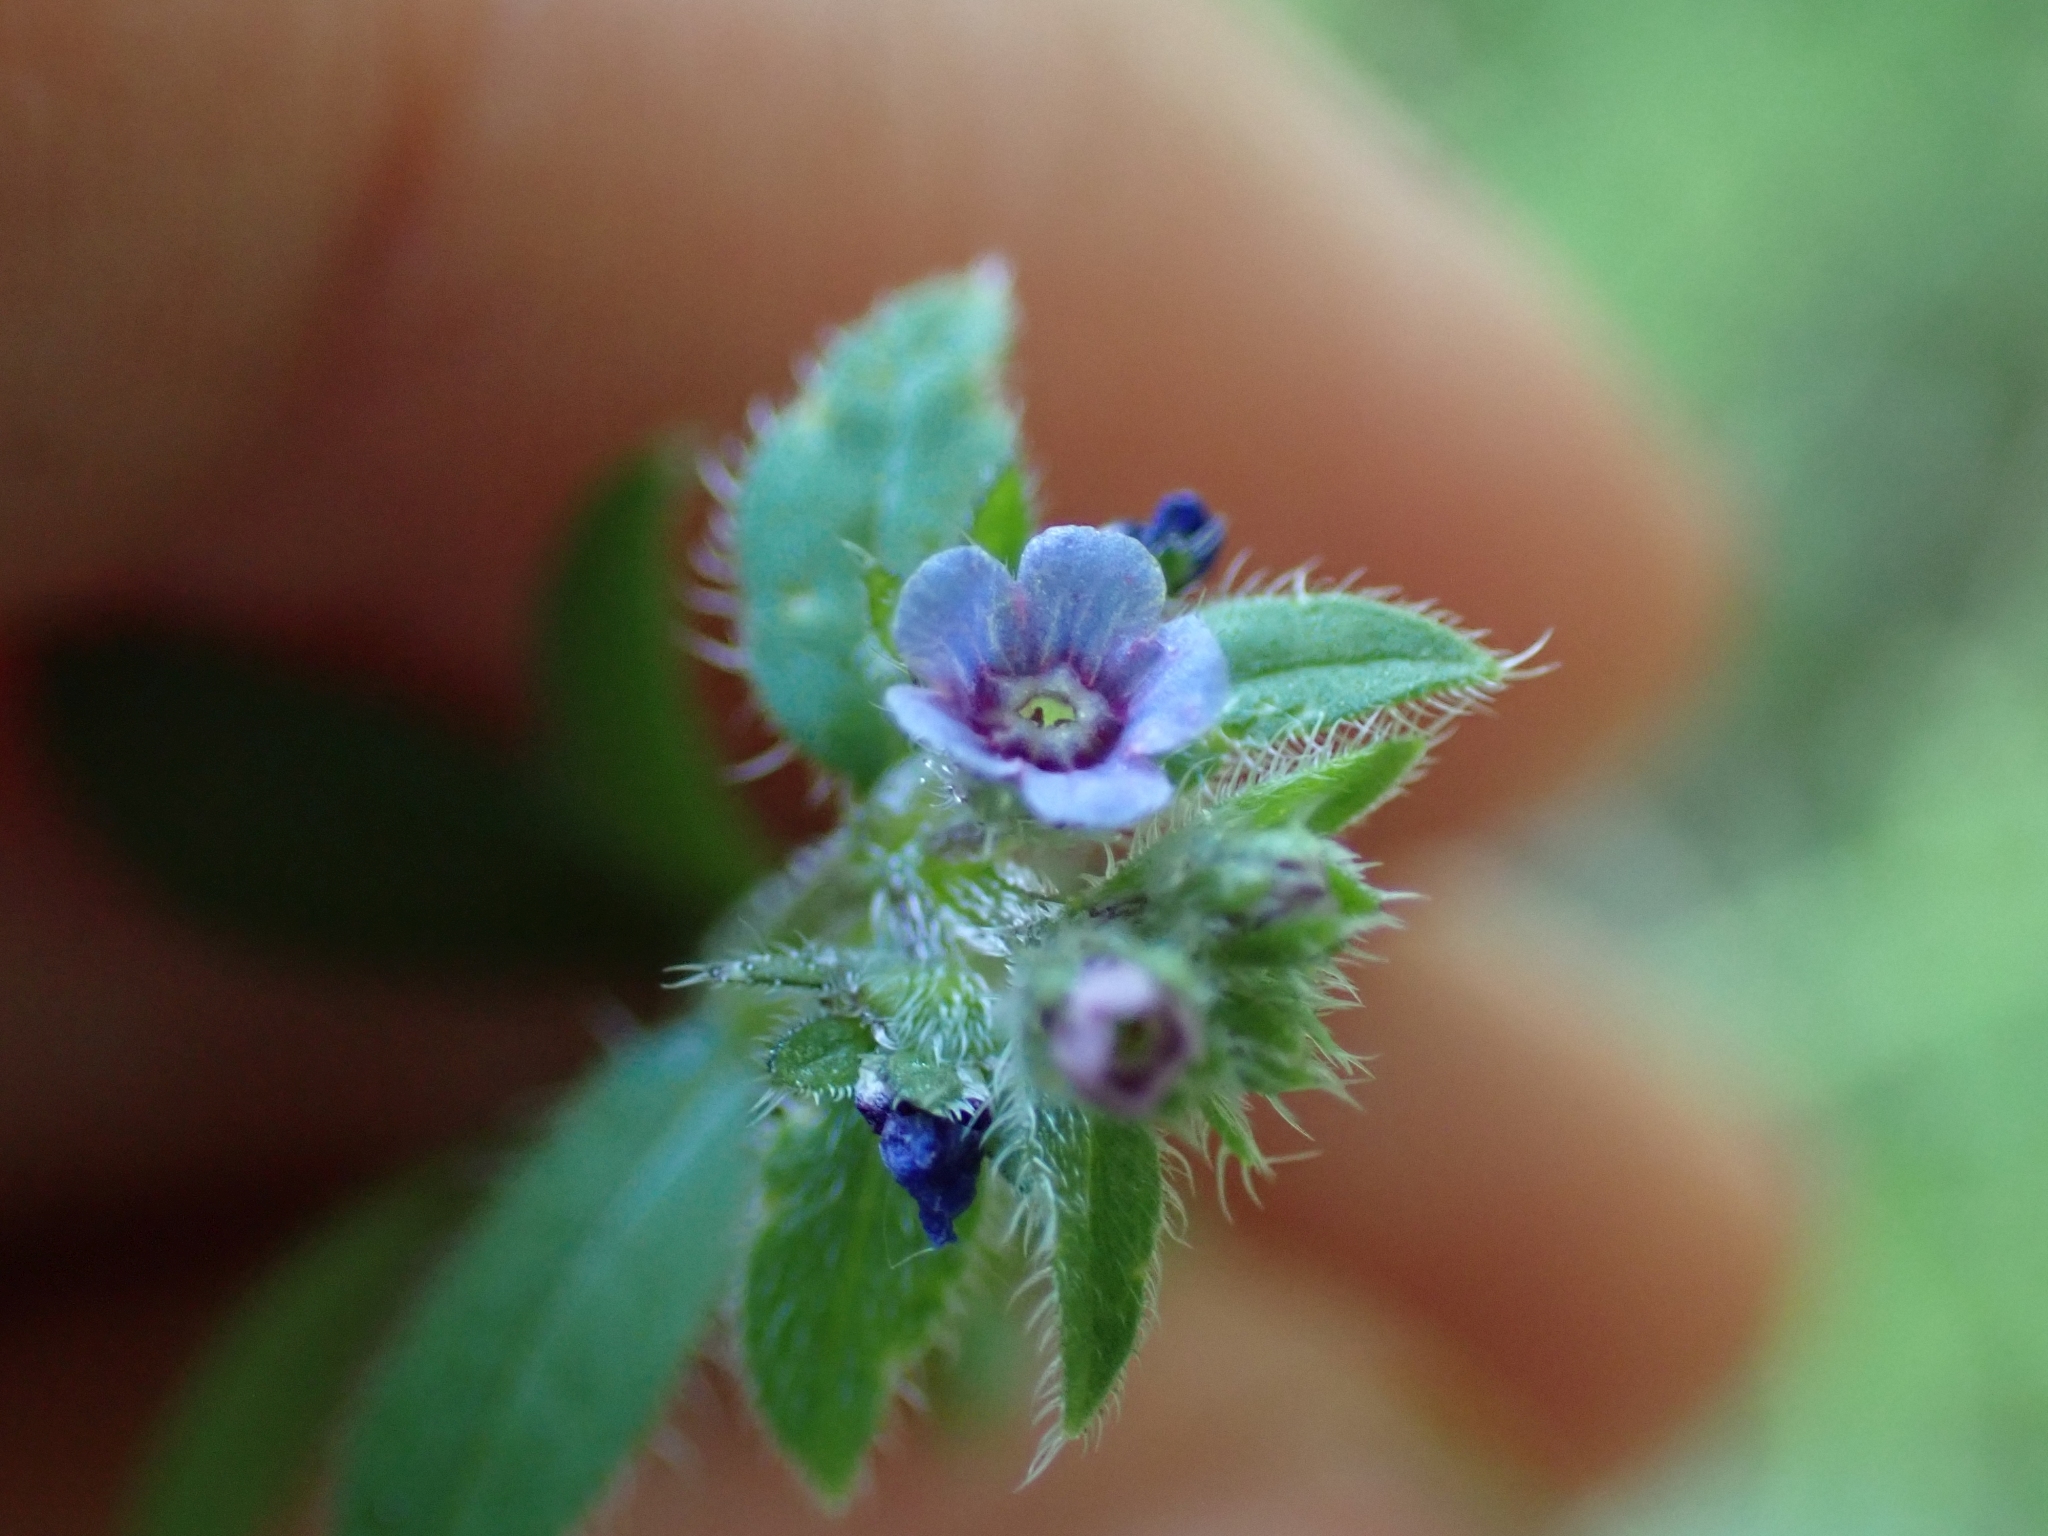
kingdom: Plantae
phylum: Tracheophyta
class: Magnoliopsida
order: Boraginales
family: Boraginaceae
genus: Asperugo
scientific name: Asperugo procumbens
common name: Madwort
